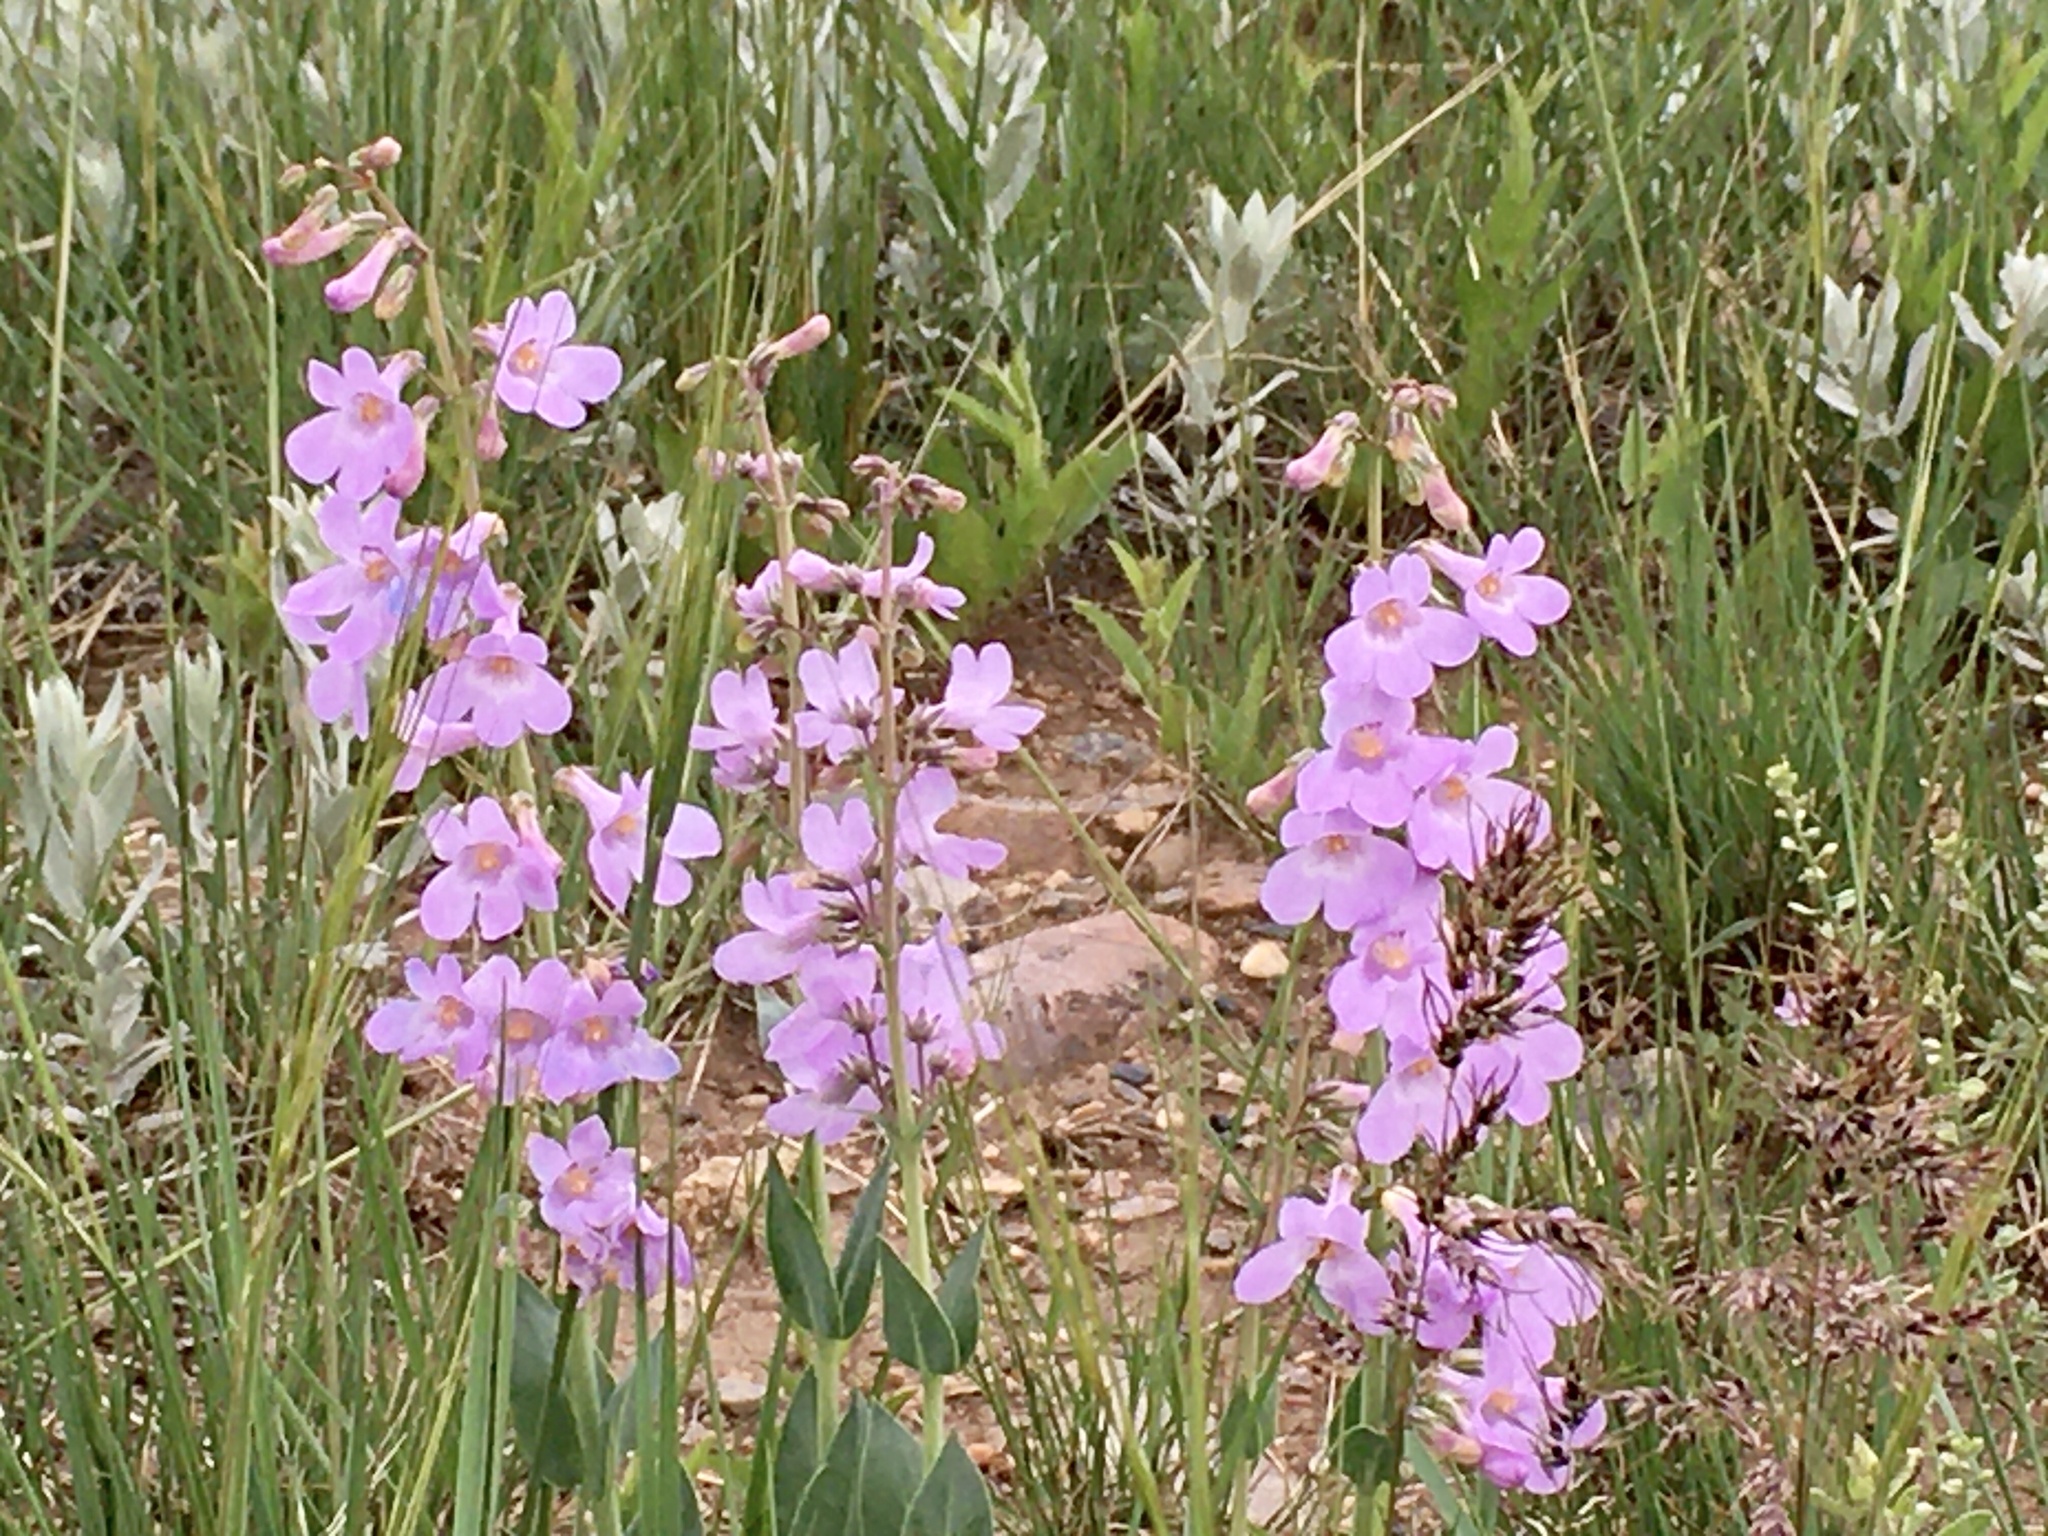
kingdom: Plantae
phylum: Tracheophyta
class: Magnoliopsida
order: Lamiales
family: Plantaginaceae
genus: Penstemon
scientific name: Penstemon secundiflorus
